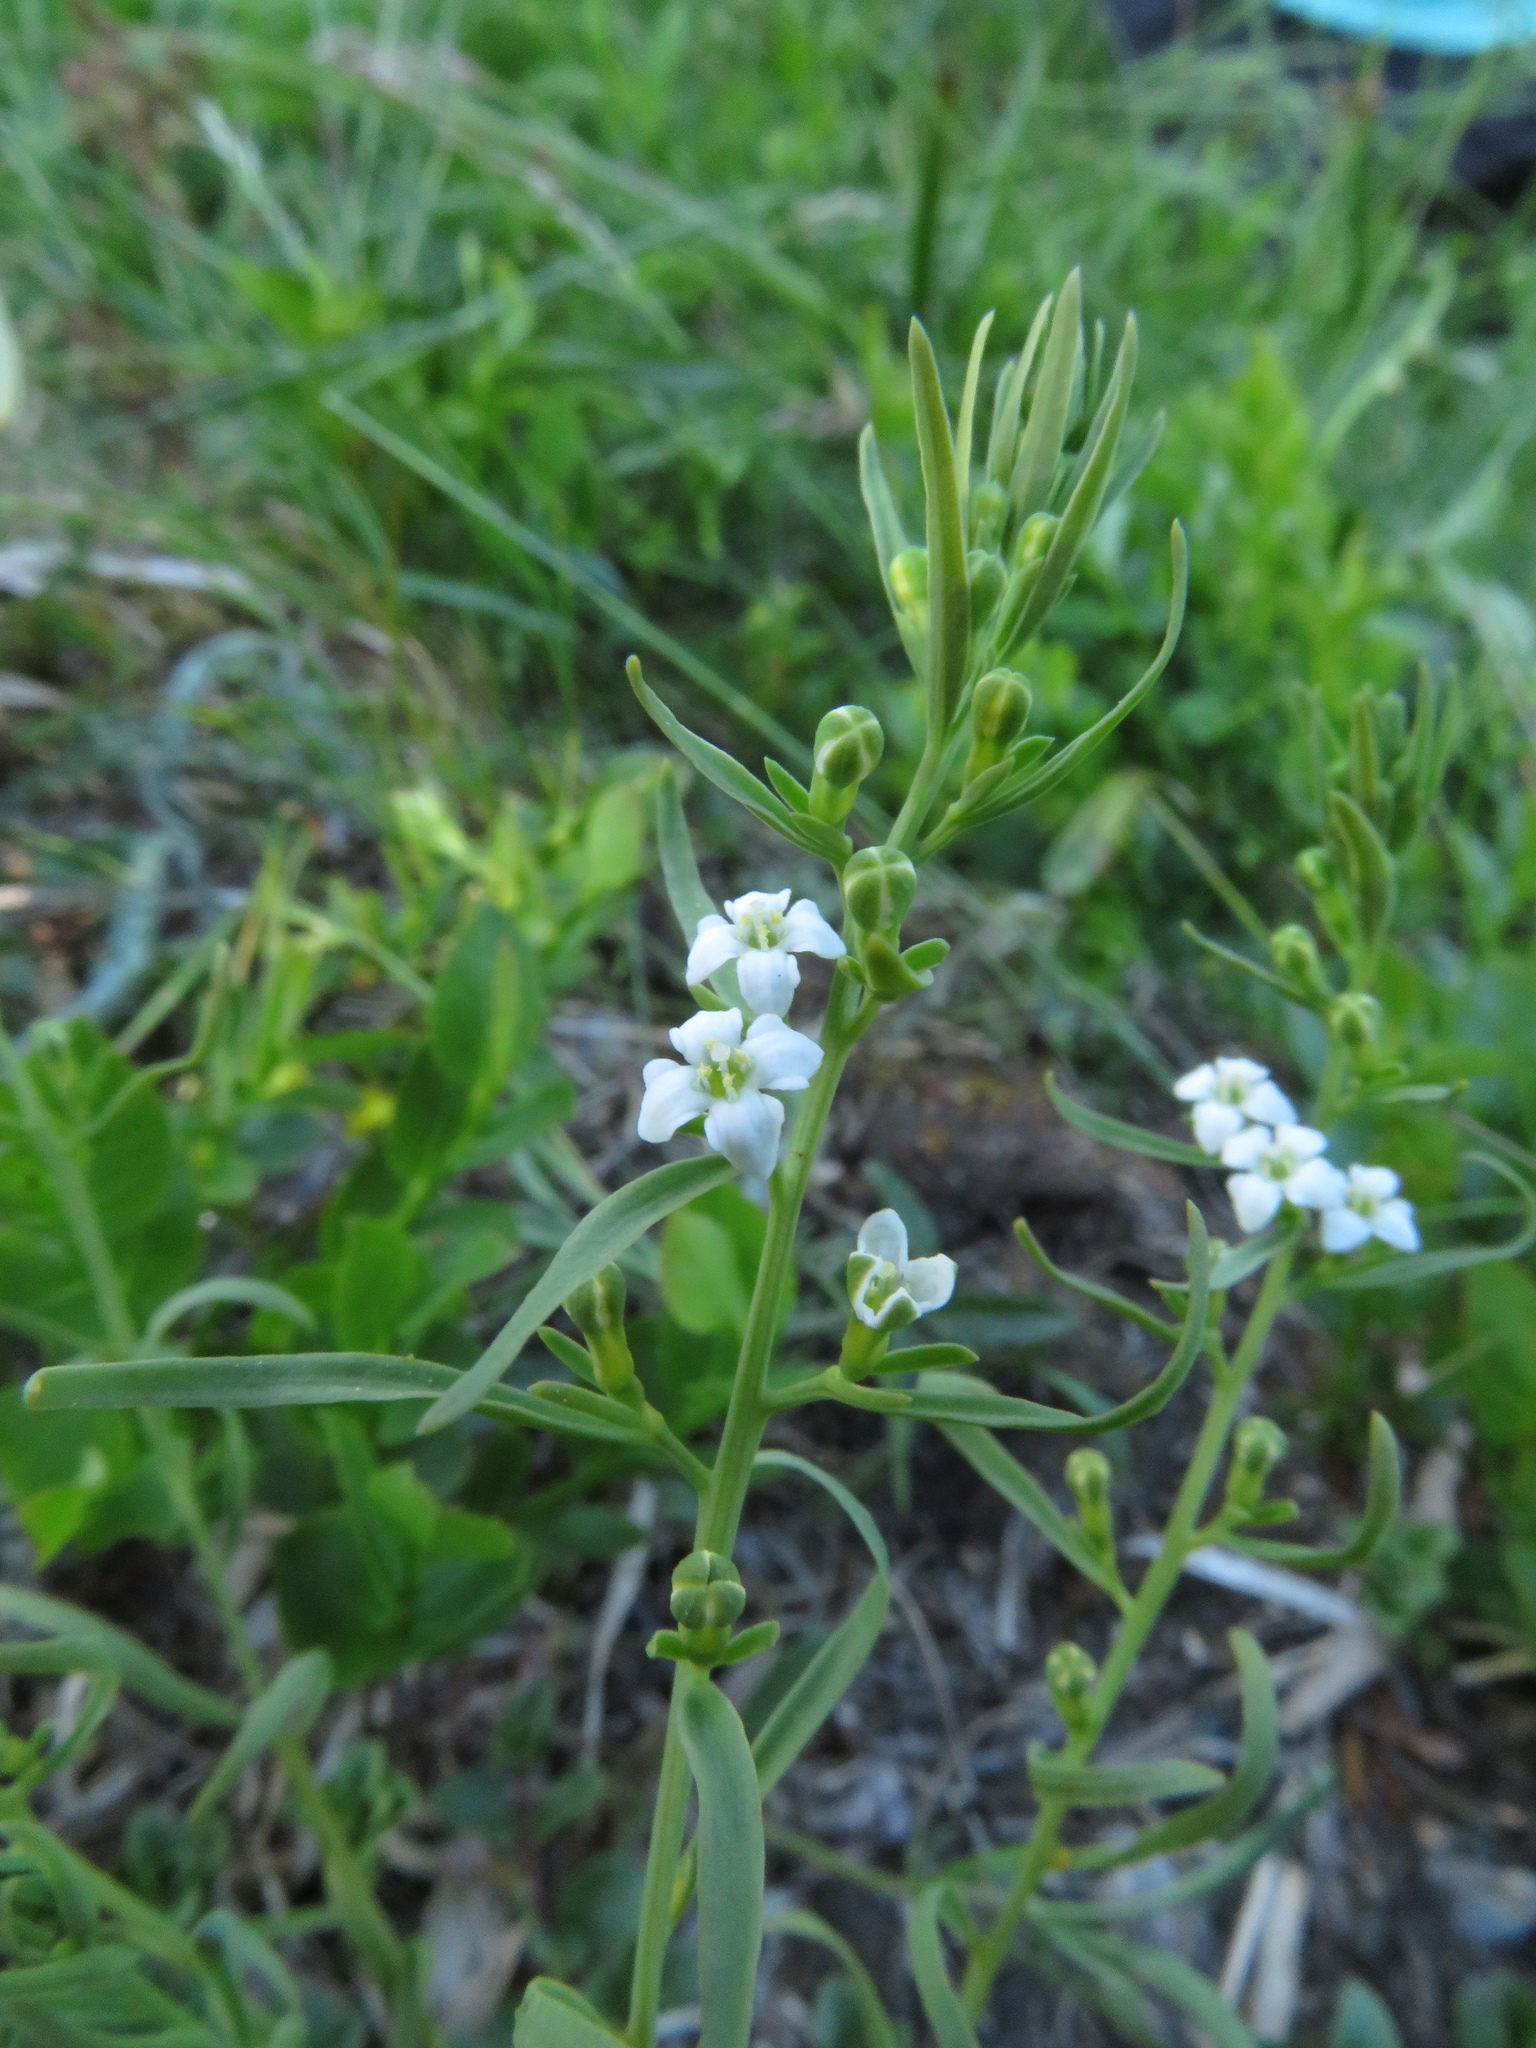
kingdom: Plantae
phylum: Tracheophyta
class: Magnoliopsida
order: Santalales
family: Thesiaceae
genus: Thesium
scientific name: Thesium alpinum
